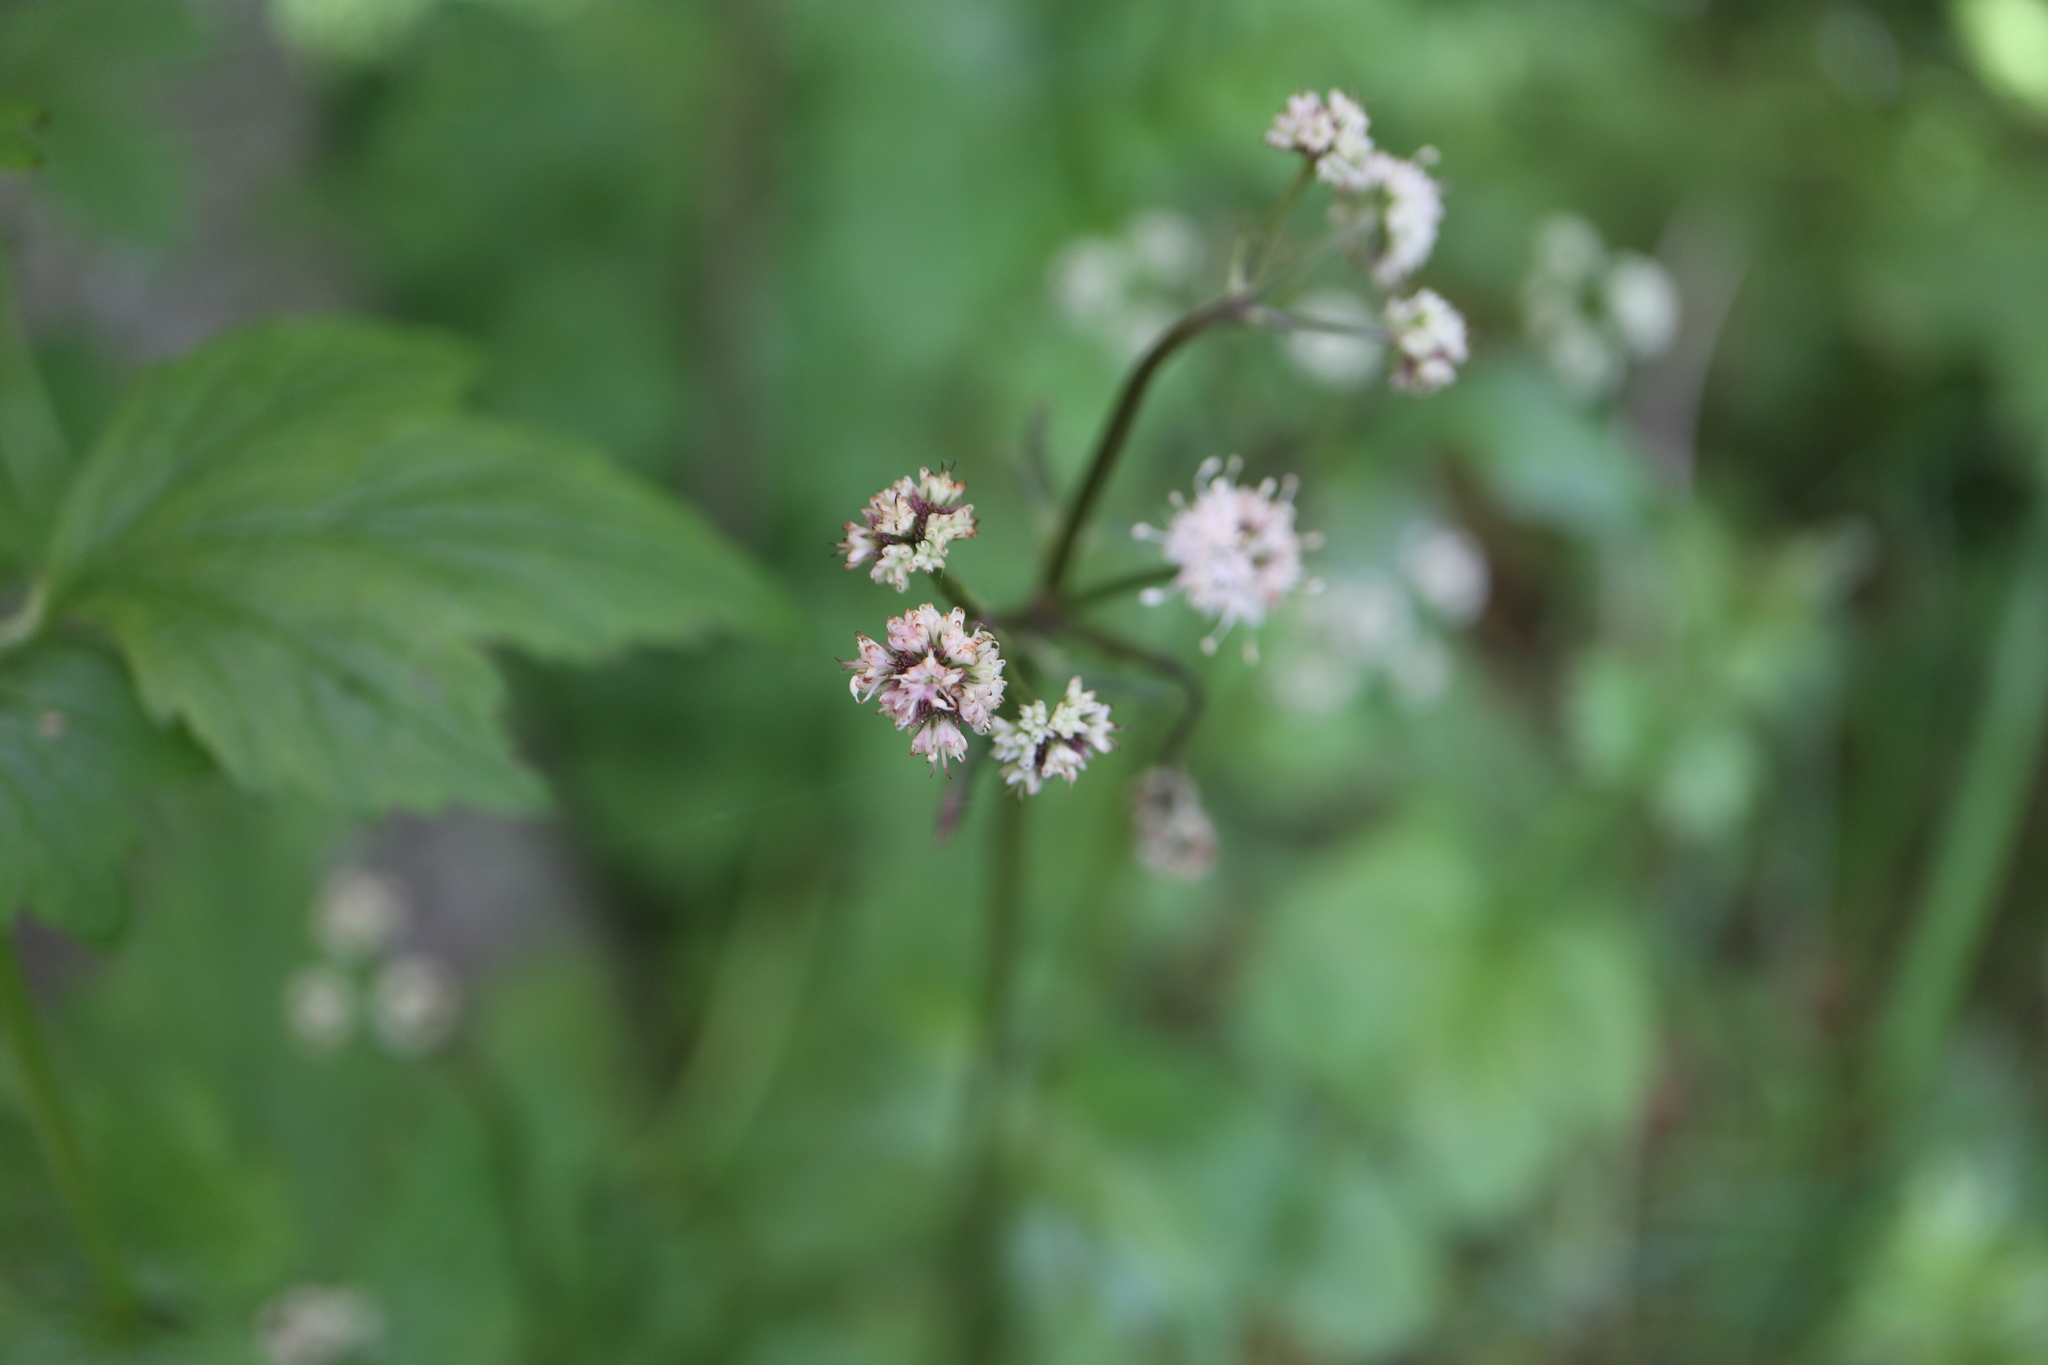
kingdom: Plantae
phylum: Tracheophyta
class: Magnoliopsida
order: Apiales
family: Apiaceae
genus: Sanicula
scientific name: Sanicula europaea
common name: Sanicle
